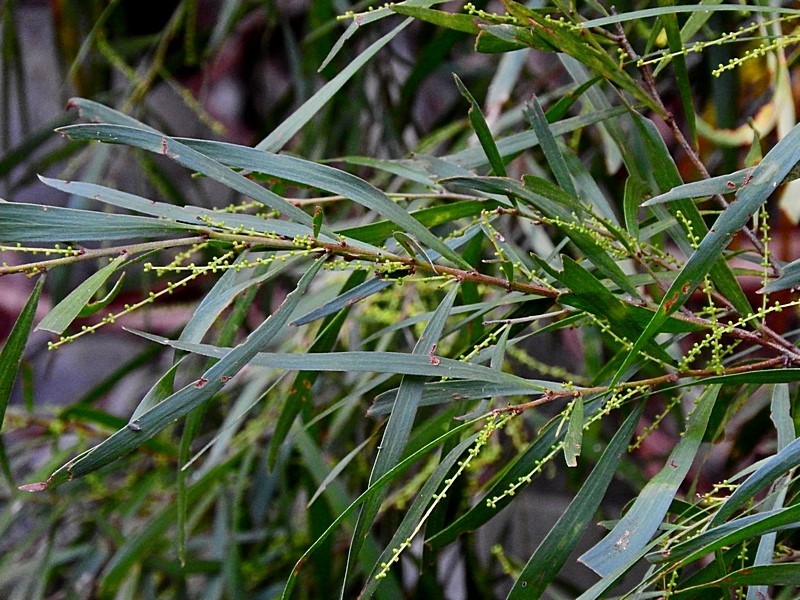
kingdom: Plantae
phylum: Tracheophyta
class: Magnoliopsida
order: Fabales
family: Fabaceae
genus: Acacia
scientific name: Acacia floribunda
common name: Gossamer wattle
